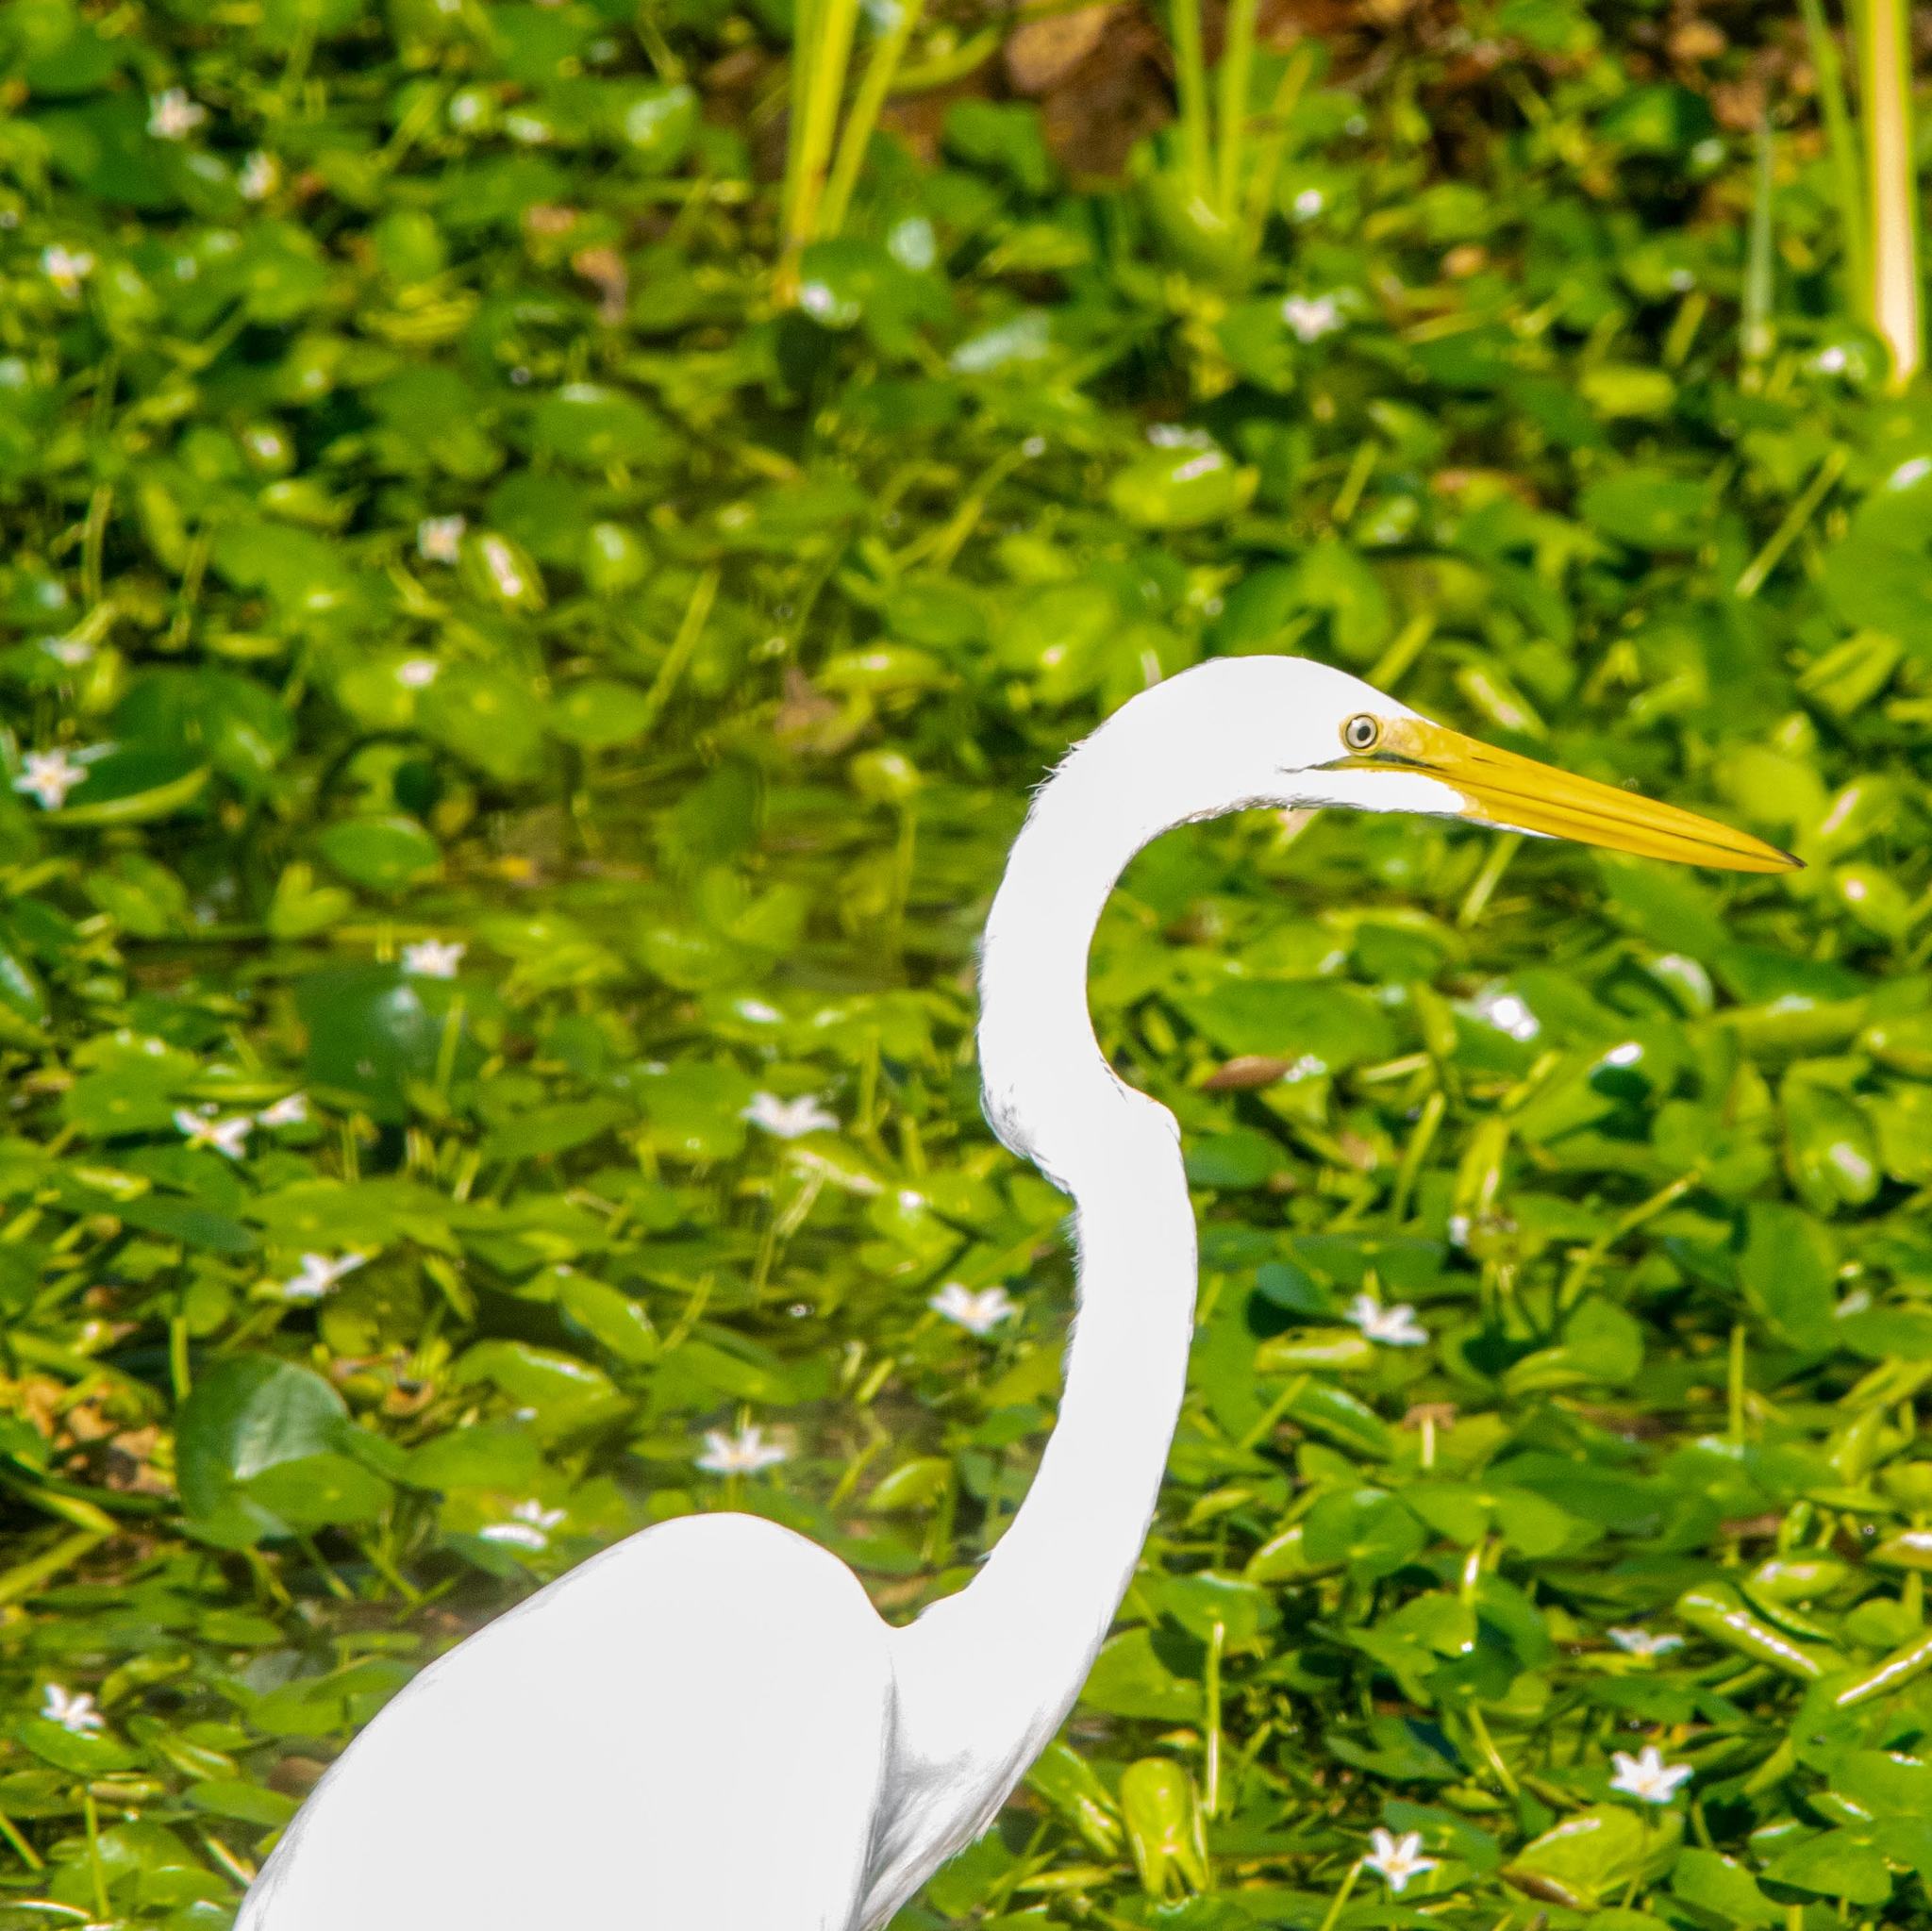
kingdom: Animalia
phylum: Chordata
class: Aves
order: Pelecaniformes
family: Ardeidae
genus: Ardea
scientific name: Ardea alba
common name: Great egret
